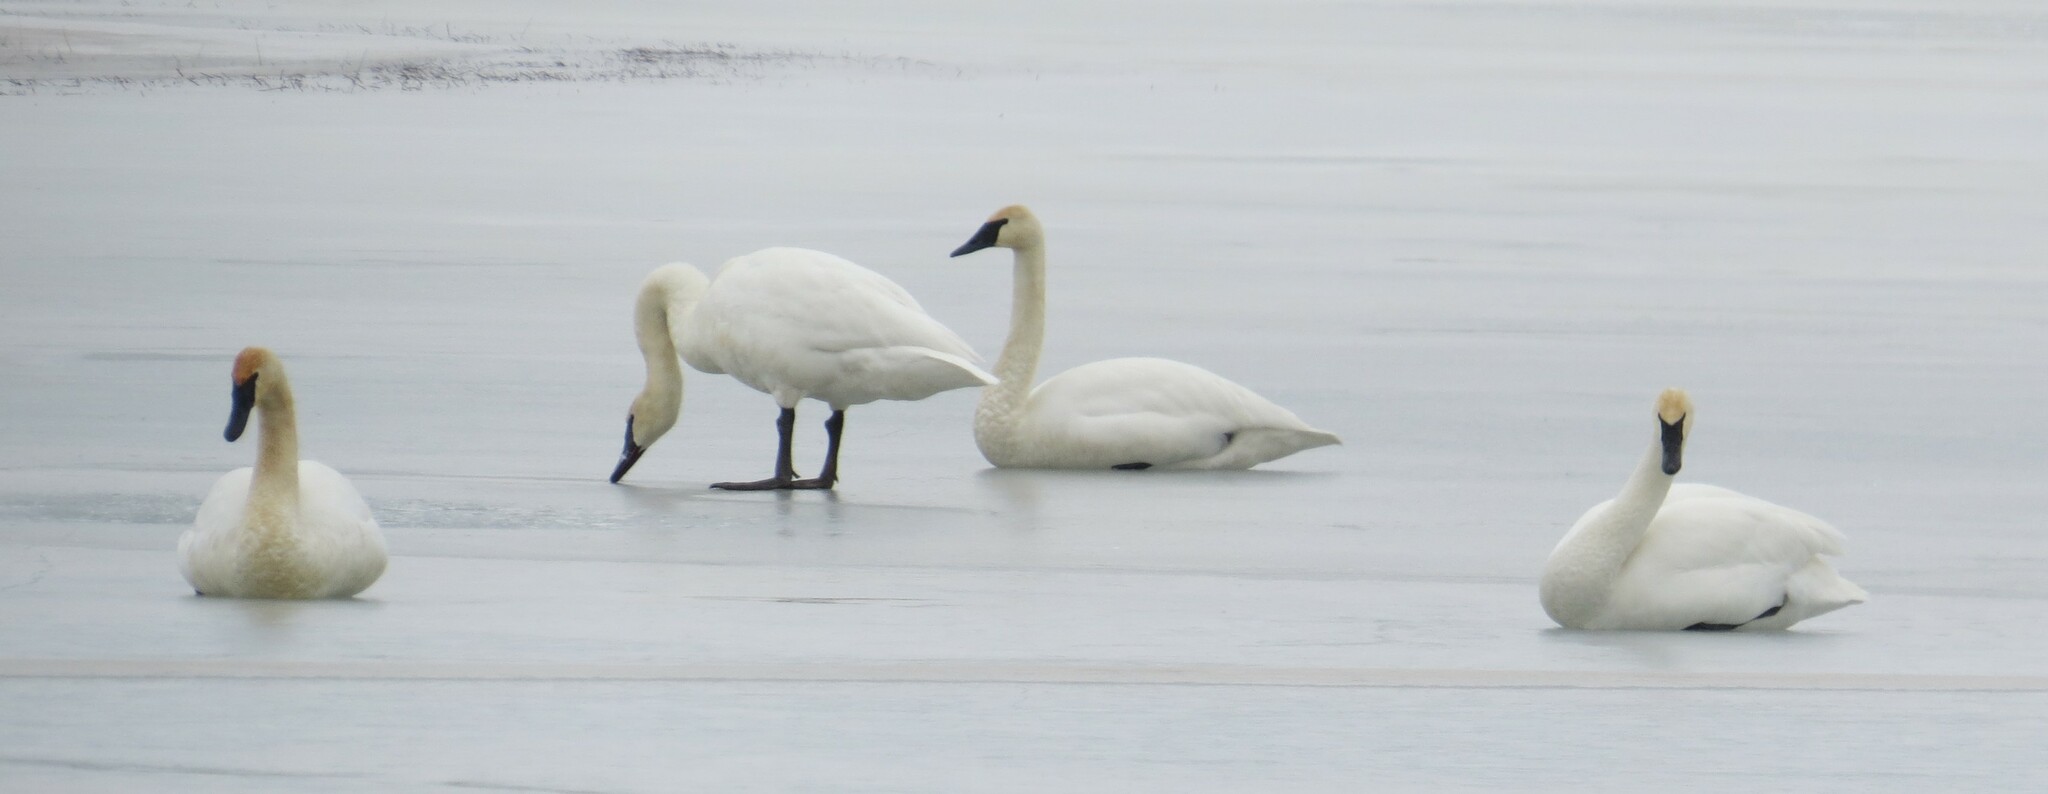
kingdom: Animalia
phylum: Chordata
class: Aves
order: Anseriformes
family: Anatidae
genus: Cygnus
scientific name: Cygnus buccinator
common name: Trumpeter swan
